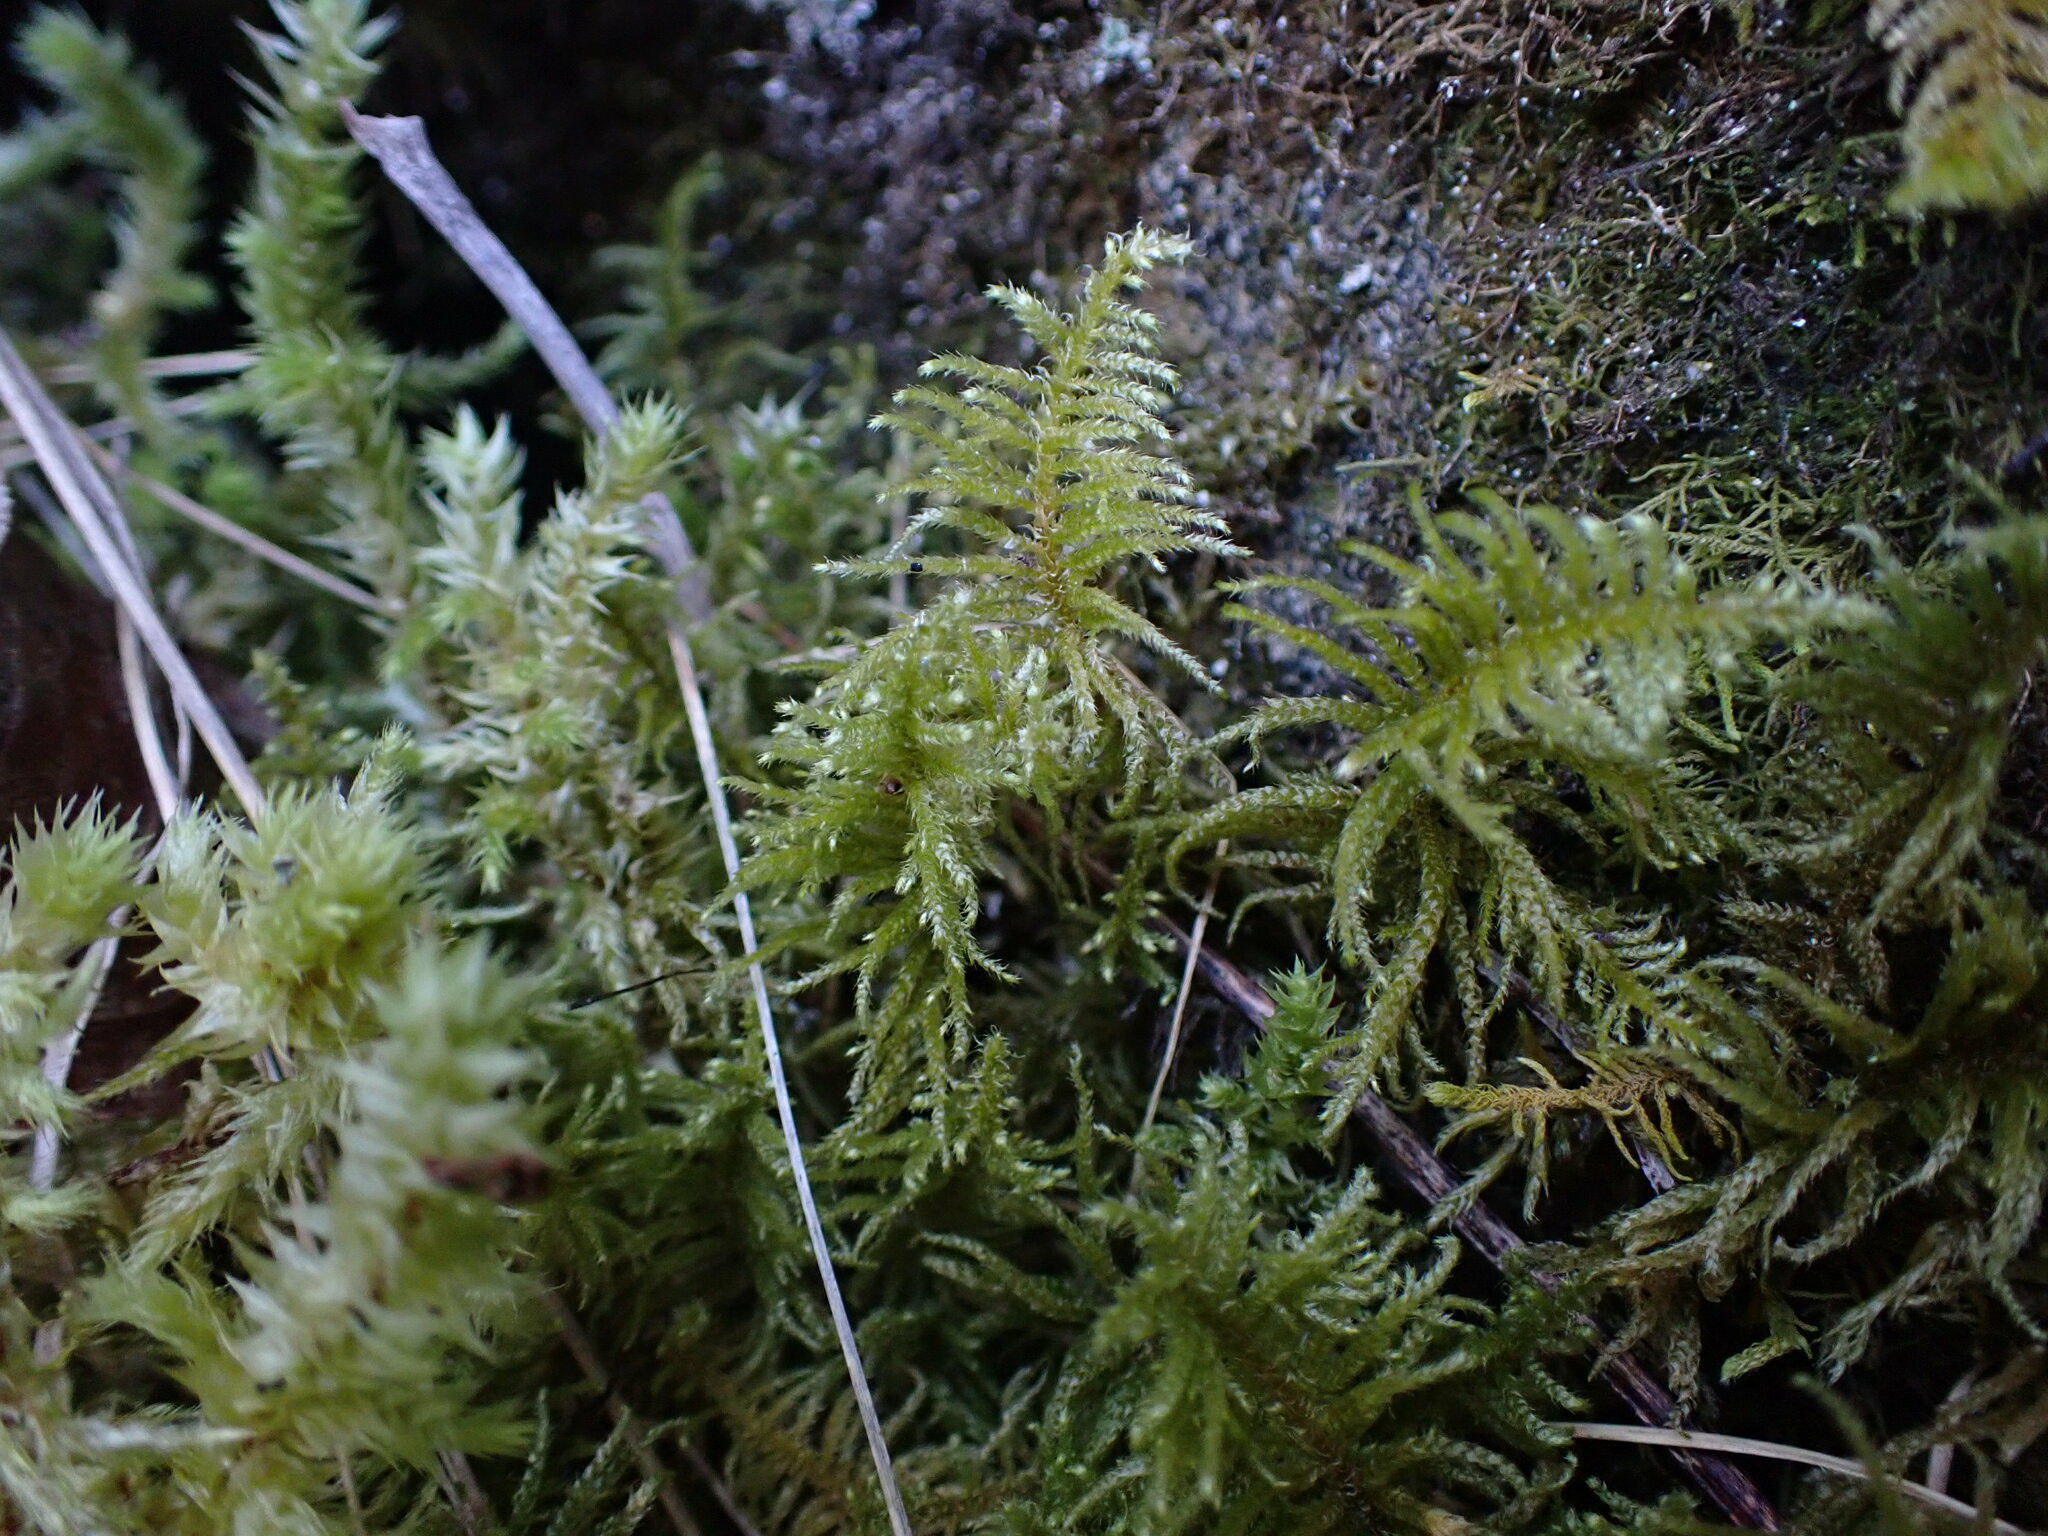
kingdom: Plantae
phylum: Bryophyta
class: Bryopsida
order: Hypnales
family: Brachytheciaceae
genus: Kindbergia
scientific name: Kindbergia oregana
